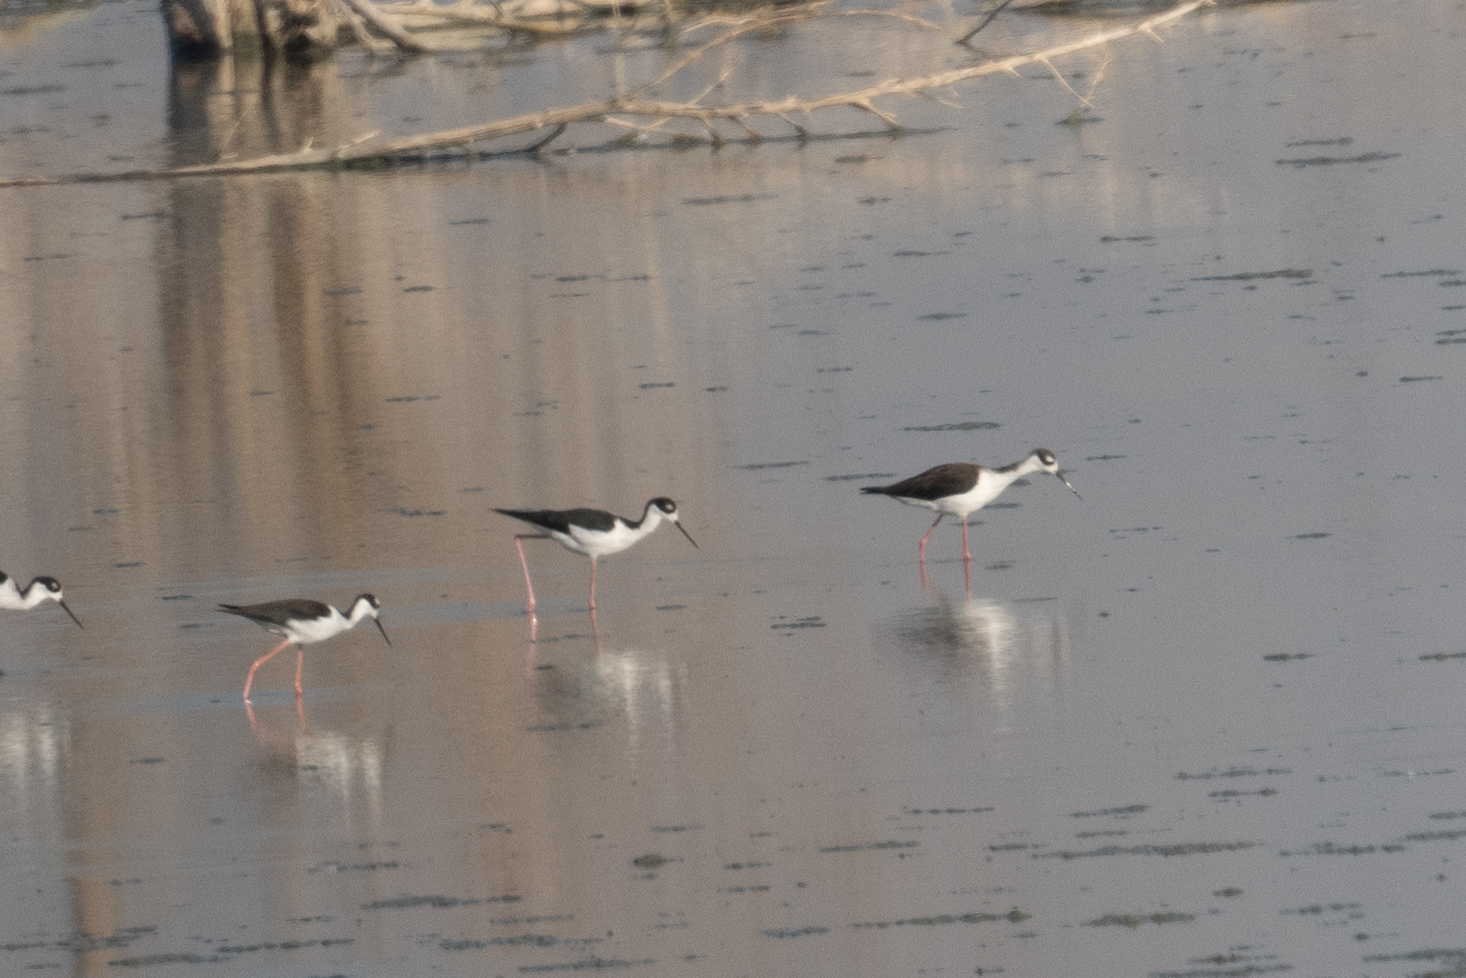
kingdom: Animalia
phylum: Chordata
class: Aves
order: Charadriiformes
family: Recurvirostridae
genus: Himantopus
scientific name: Himantopus mexicanus
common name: Black-necked stilt
